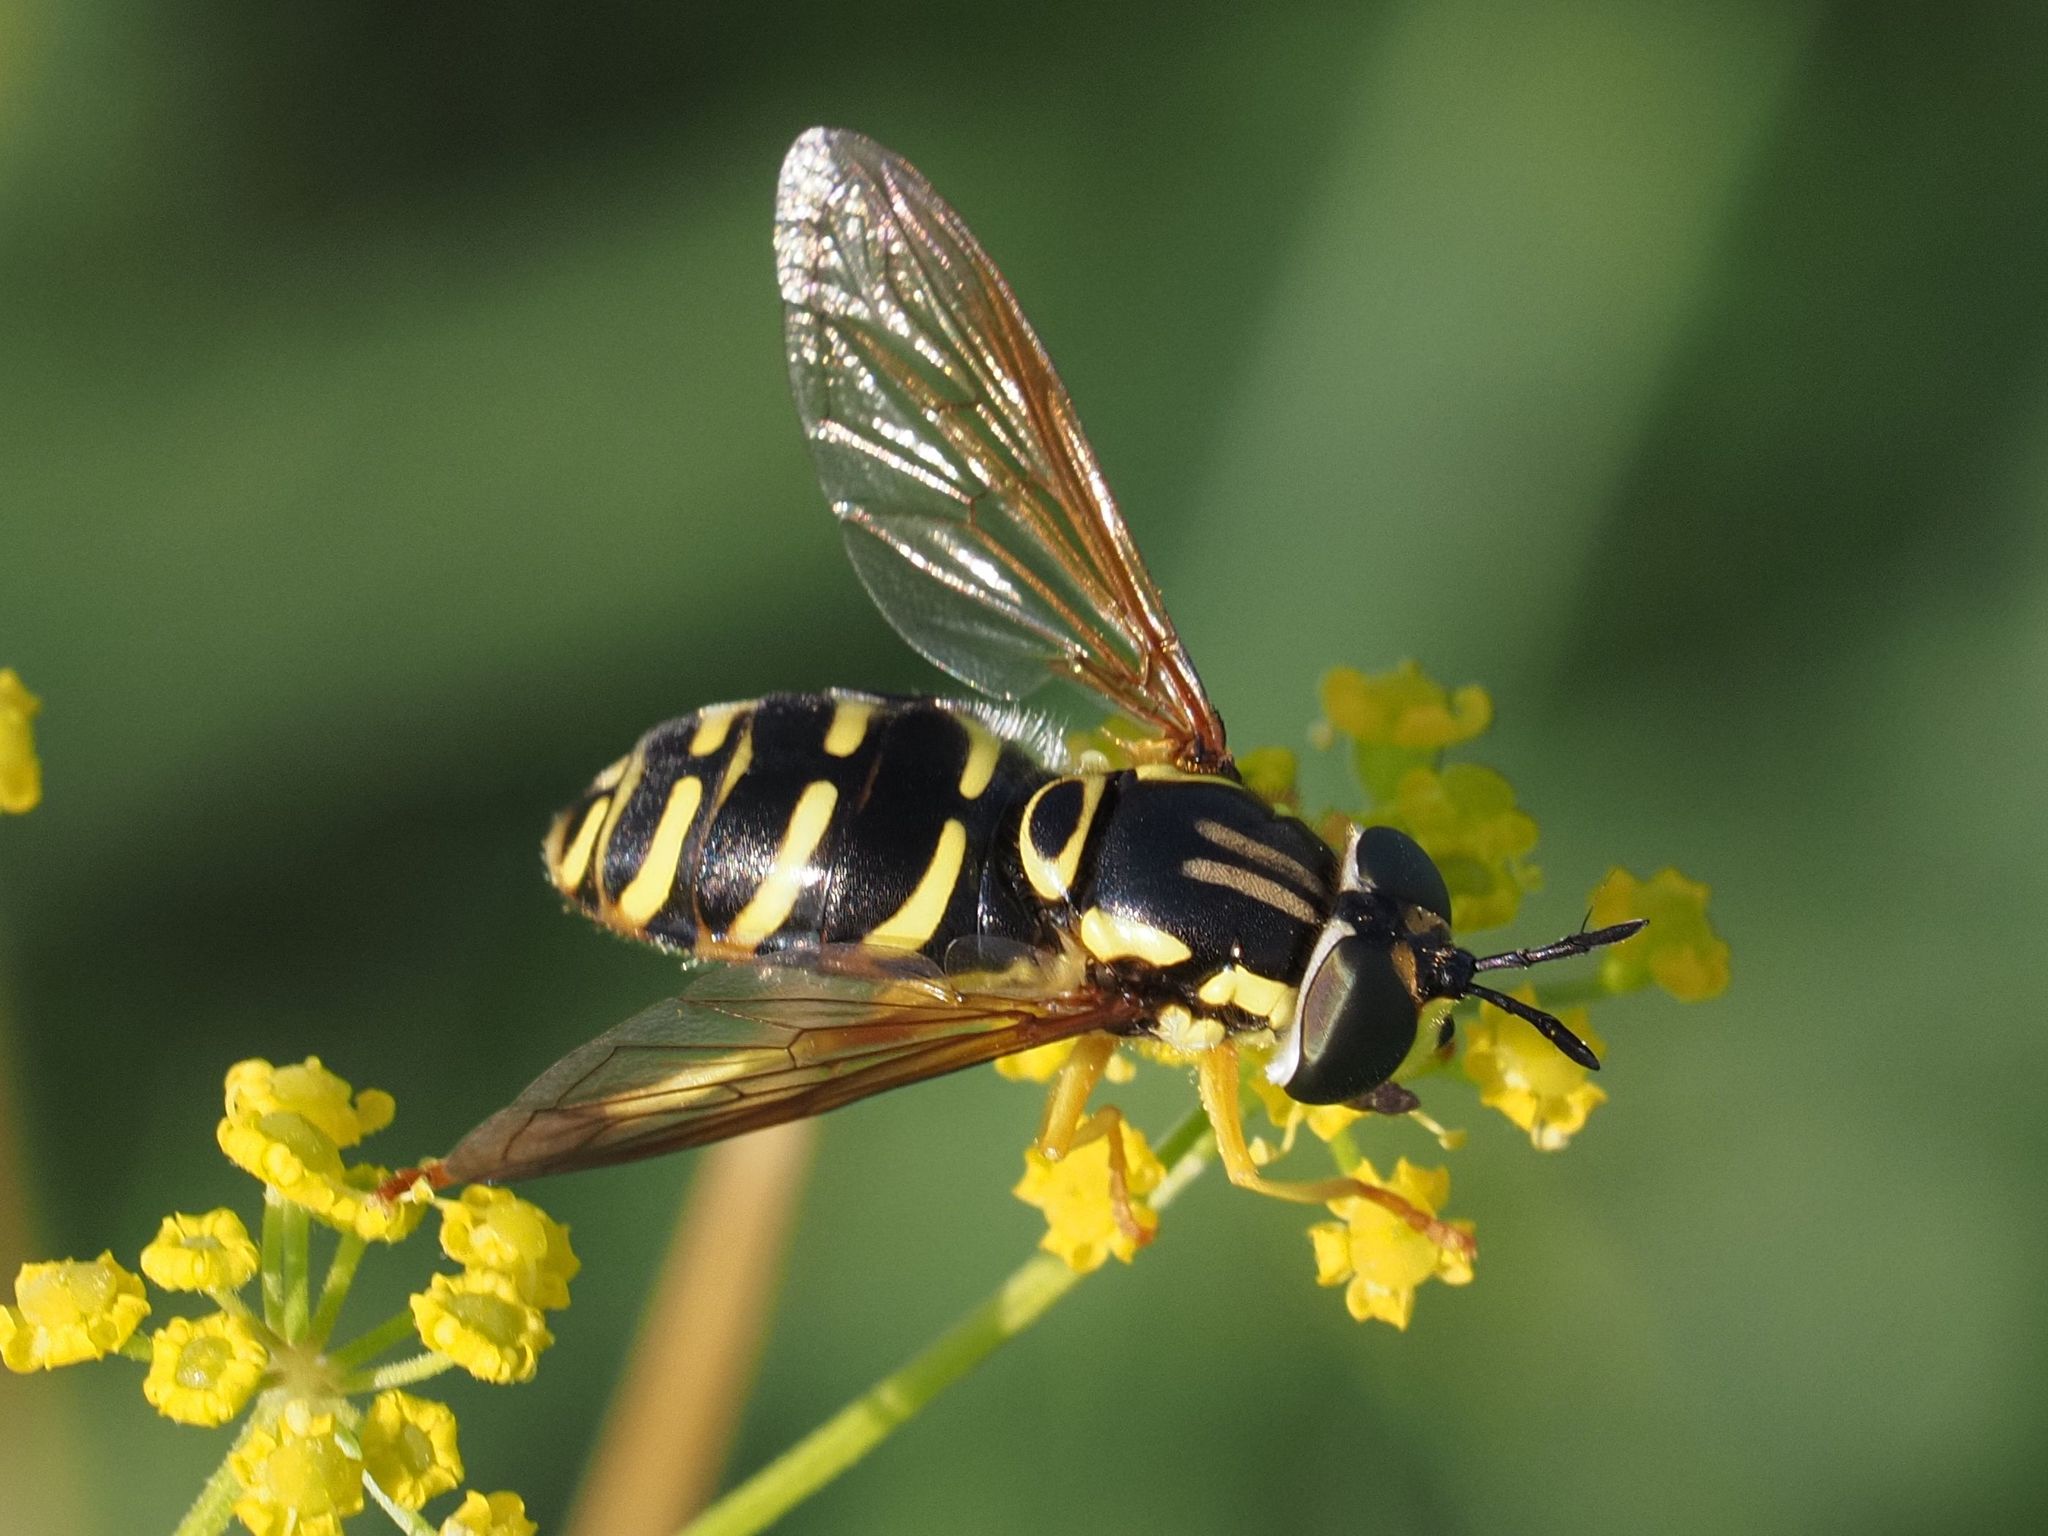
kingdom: Animalia
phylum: Arthropoda
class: Insecta
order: Diptera
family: Syrphidae
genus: Chrysotoxum
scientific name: Chrysotoxum elegans
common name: Zipperback
